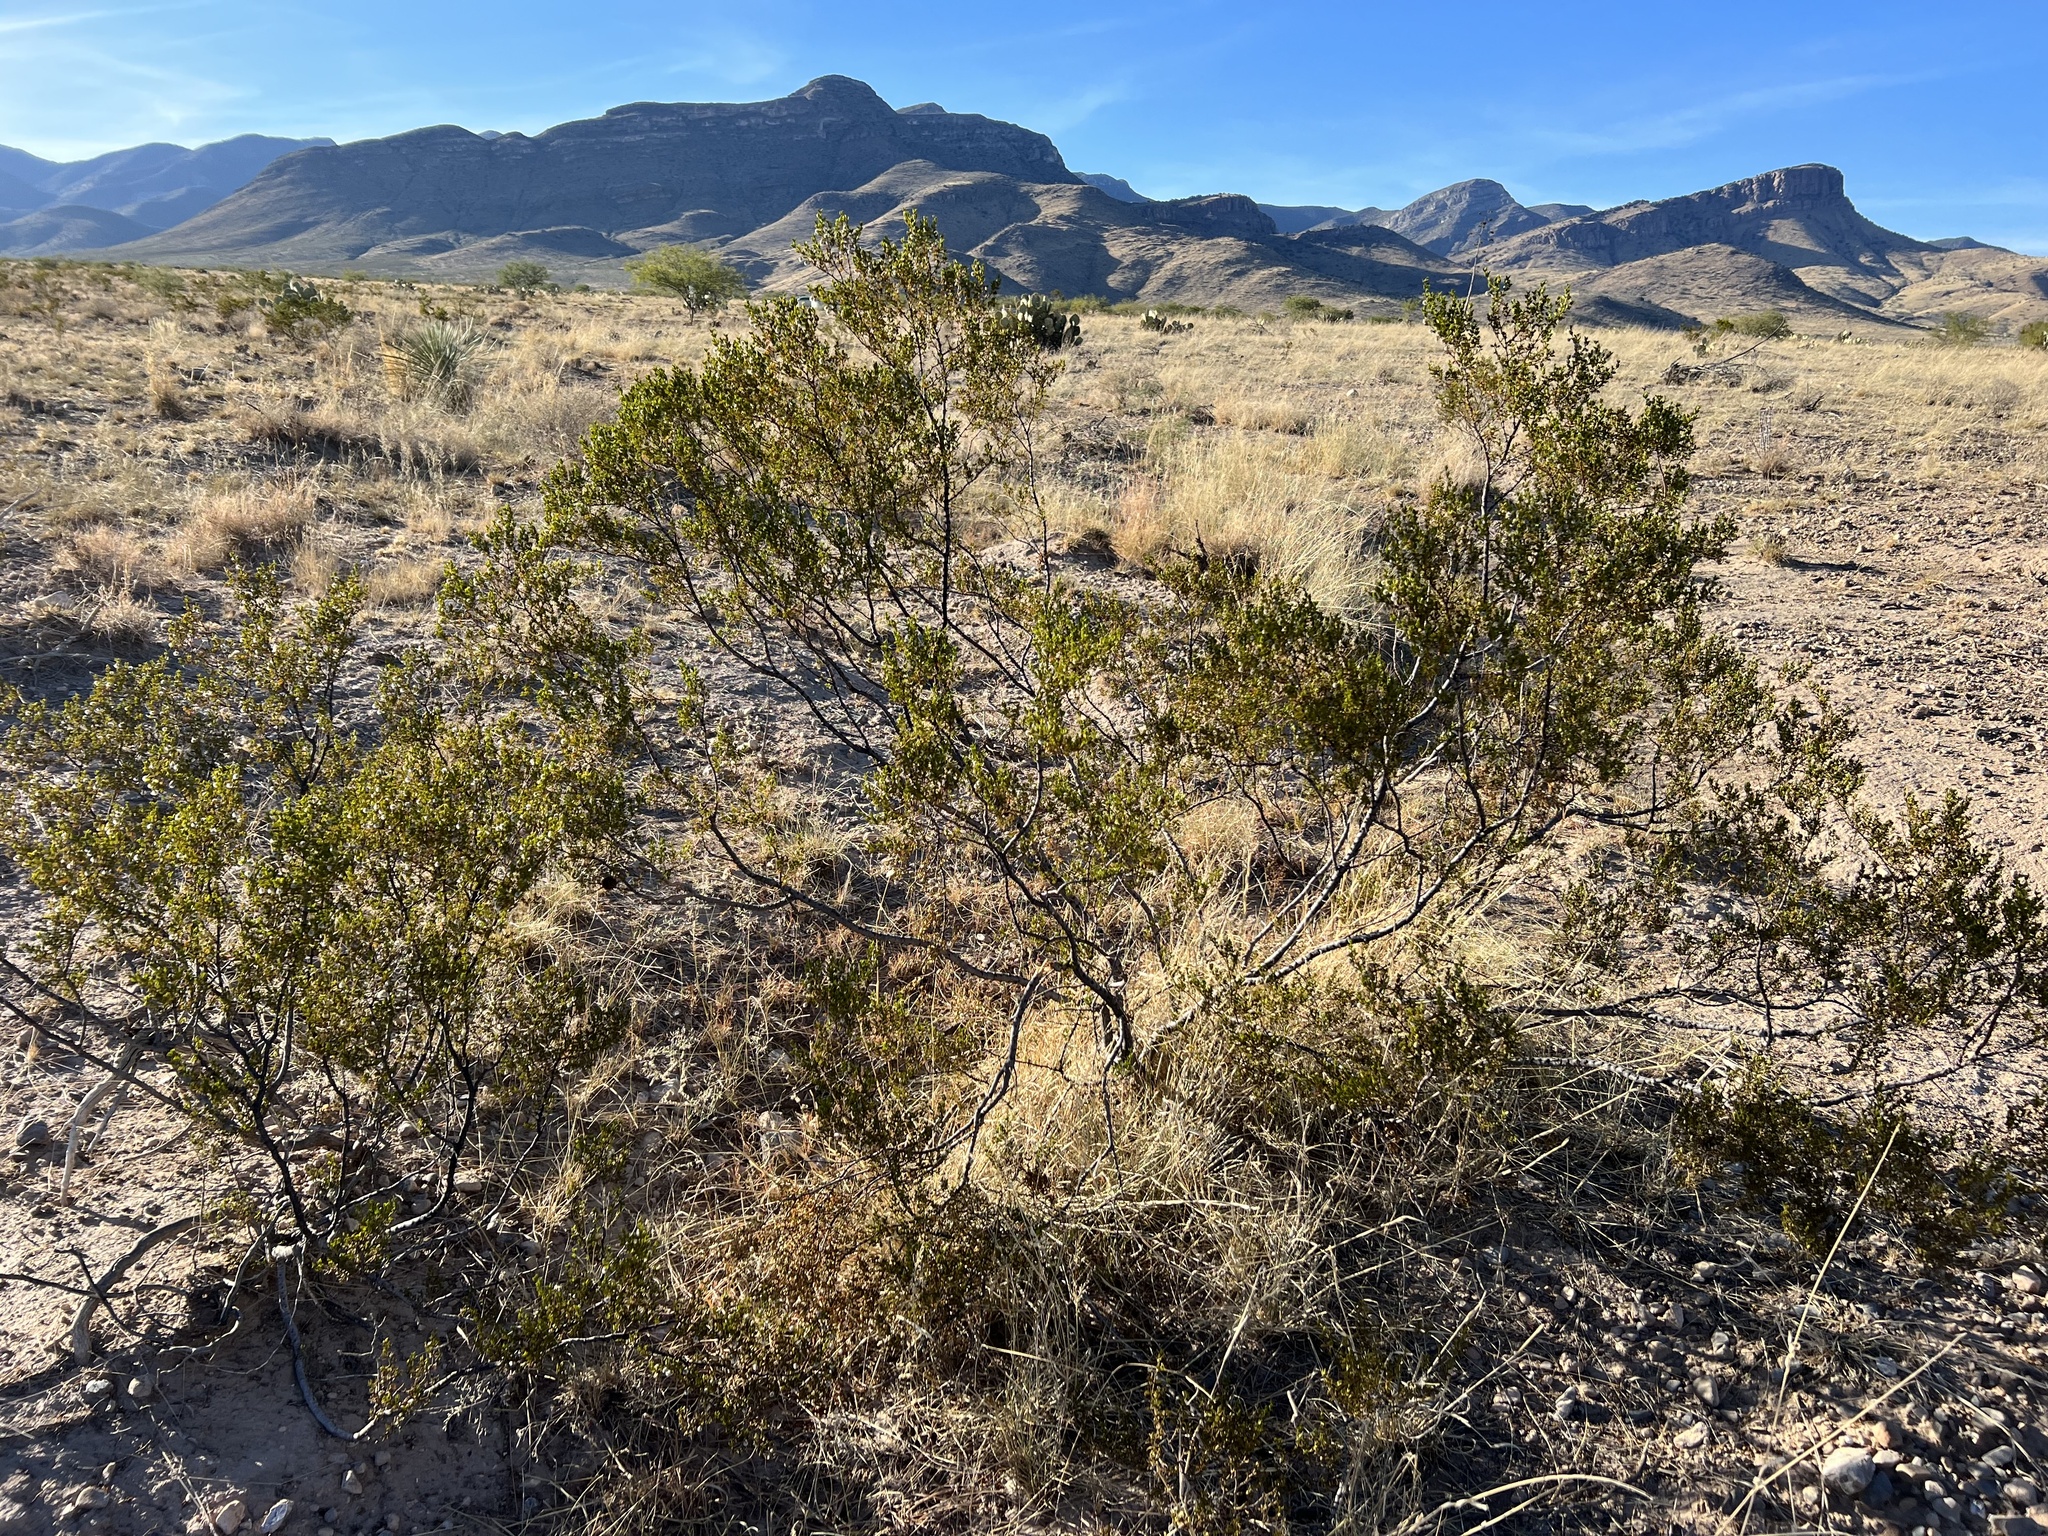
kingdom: Plantae
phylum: Tracheophyta
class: Magnoliopsida
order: Zygophyllales
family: Zygophyllaceae
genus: Larrea
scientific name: Larrea tridentata
